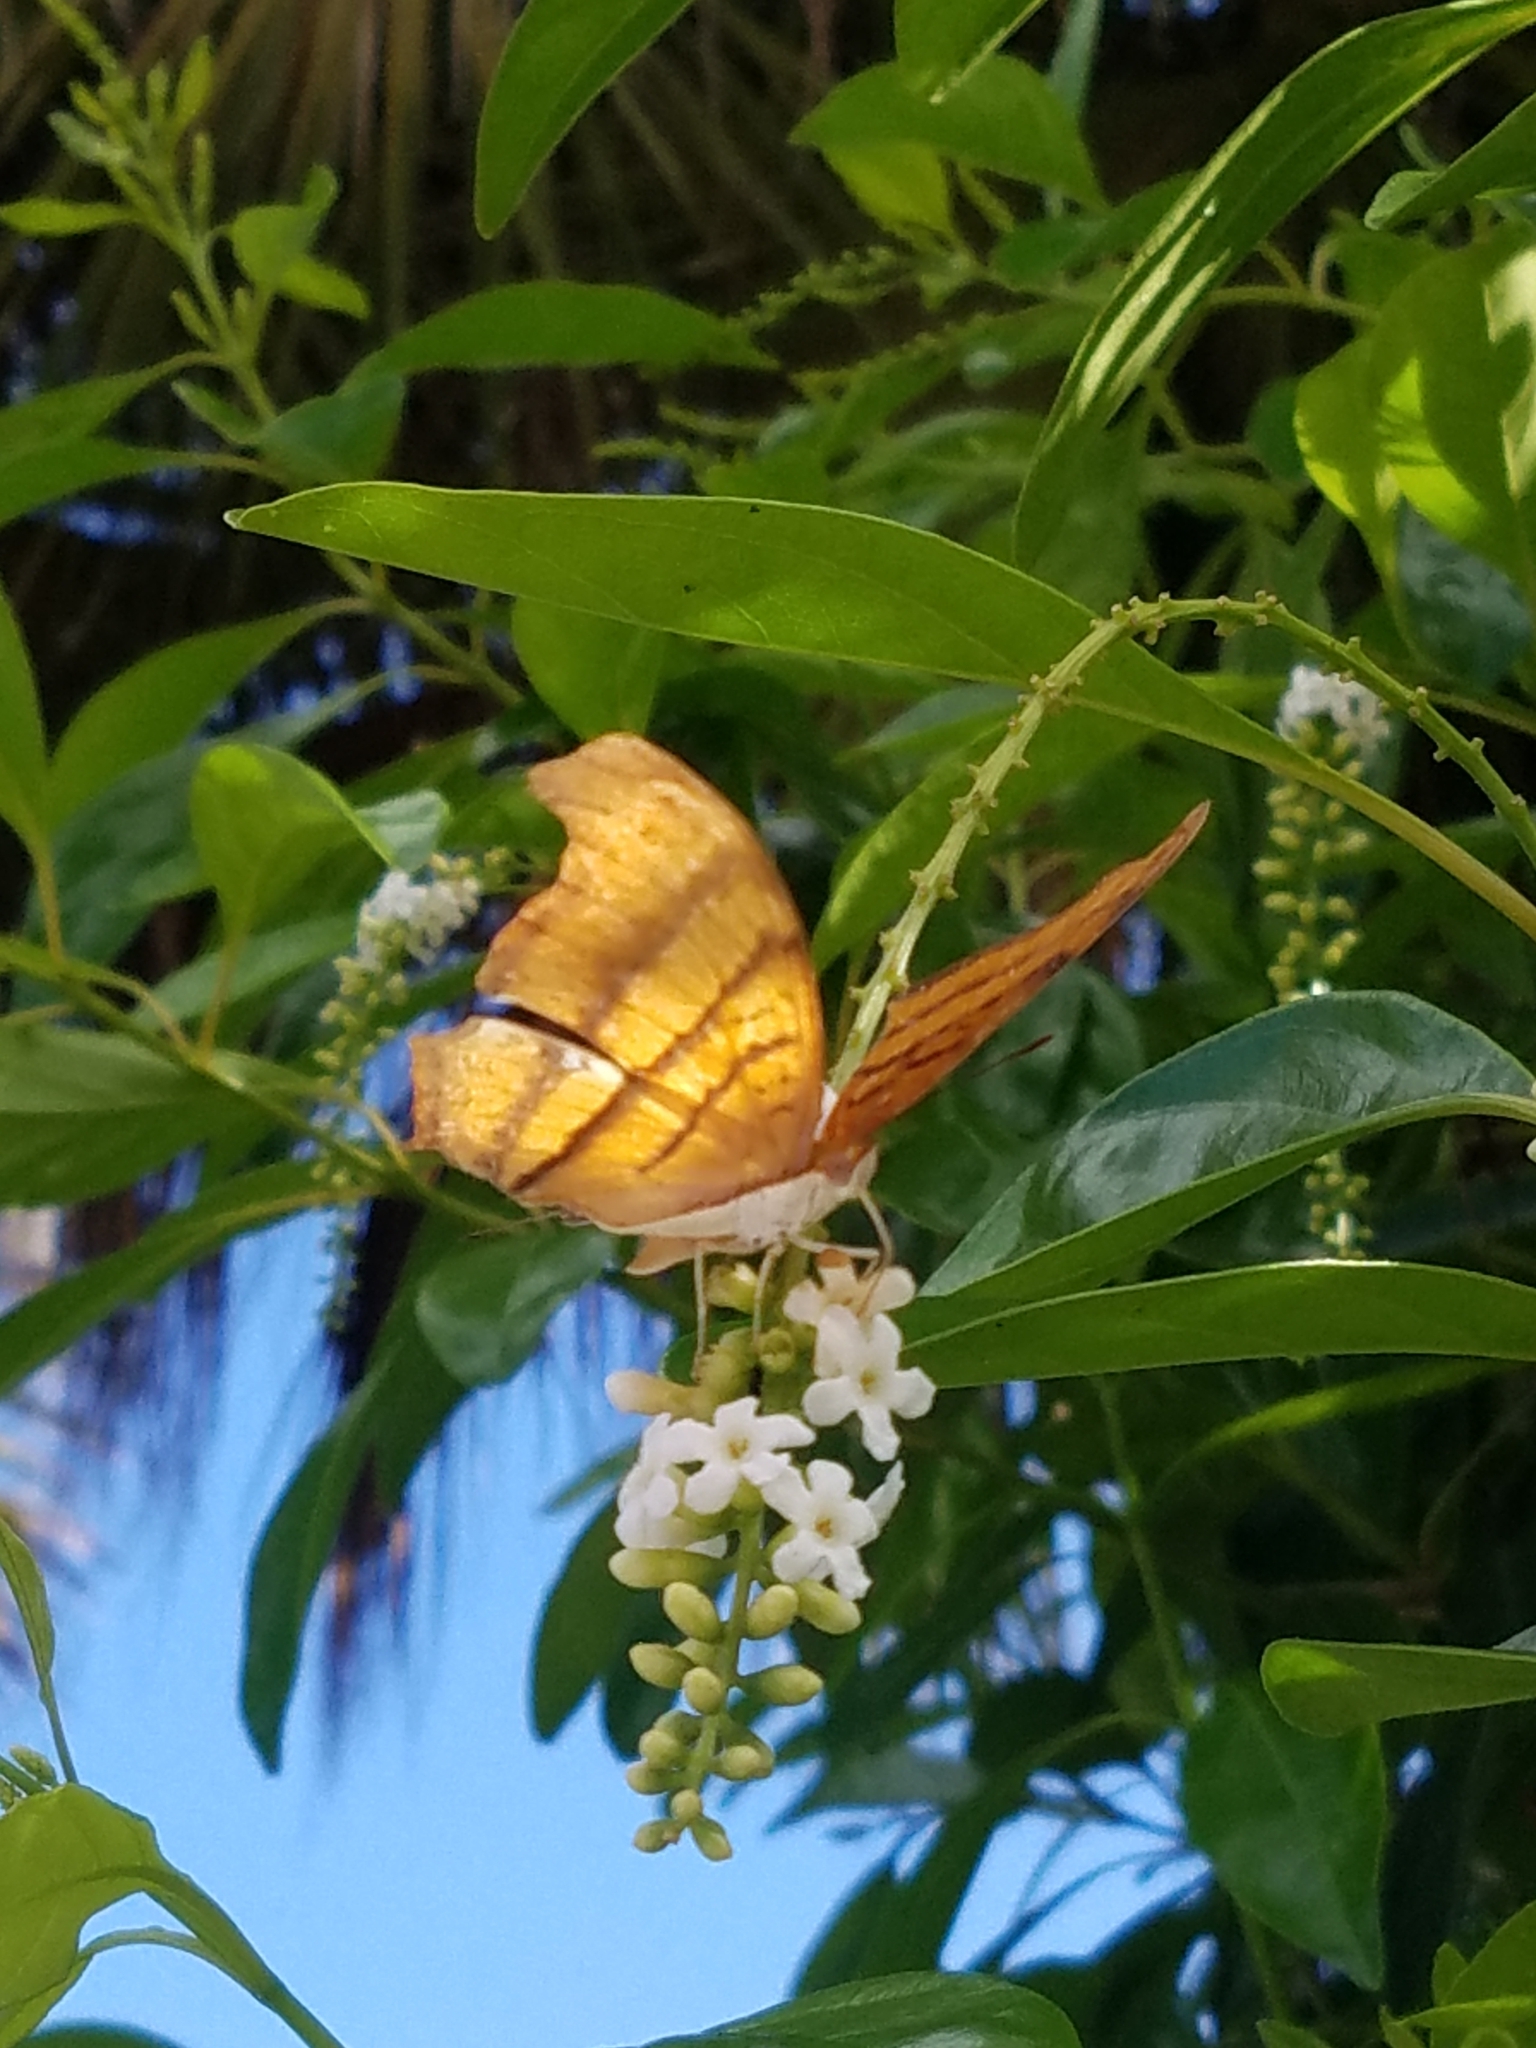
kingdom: Animalia
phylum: Arthropoda
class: Insecta
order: Lepidoptera
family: Nymphalidae
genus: Marpesia
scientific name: Marpesia petreus
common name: Red dagger wing
